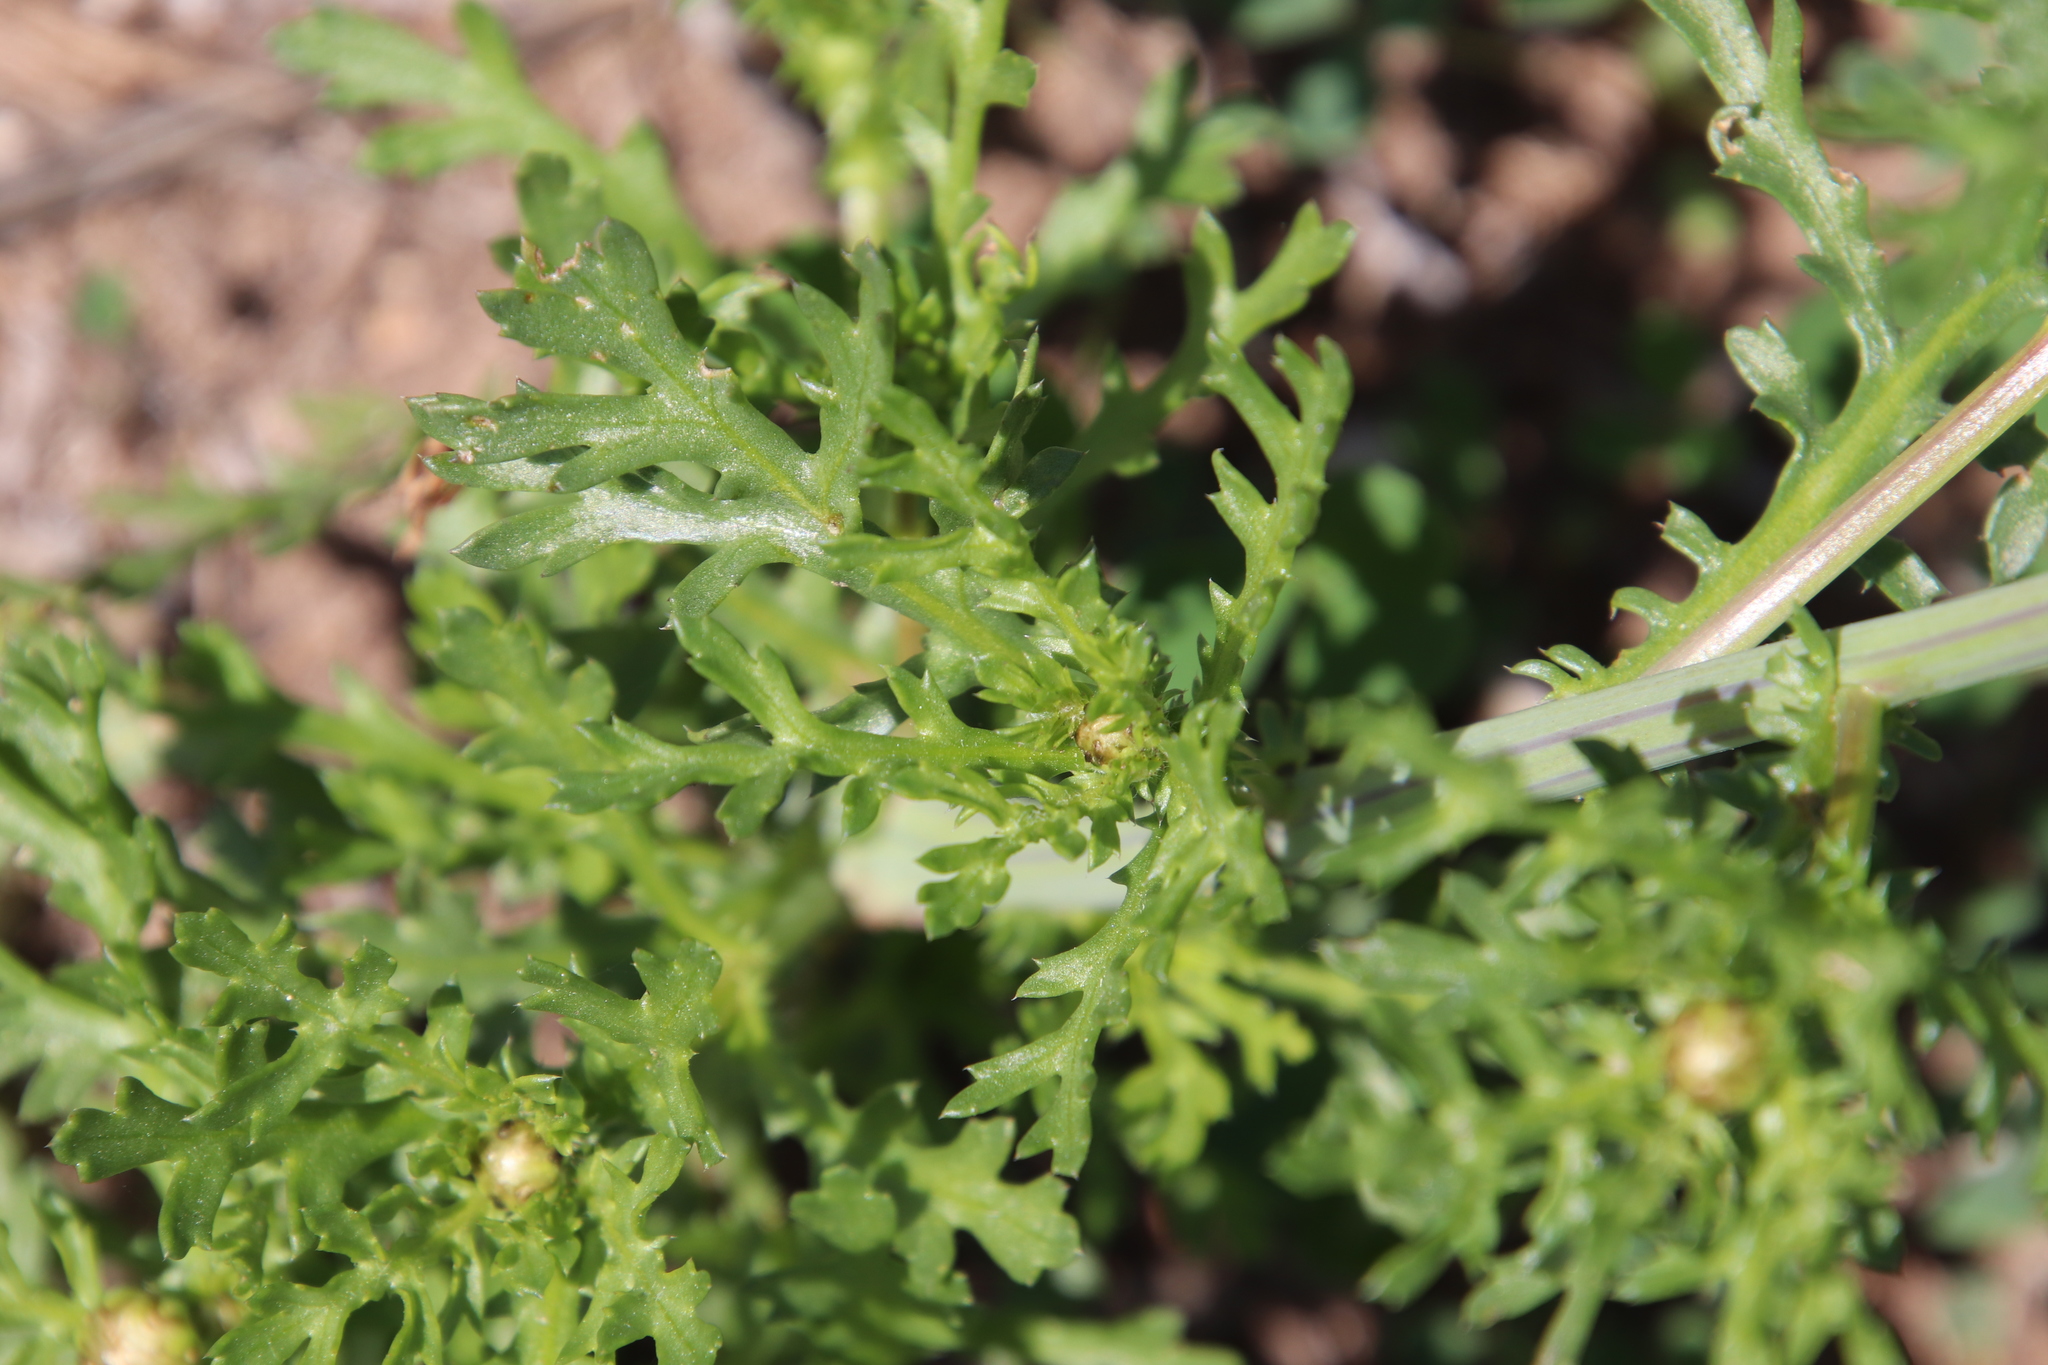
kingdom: Plantae
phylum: Tracheophyta
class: Magnoliopsida
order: Asterales
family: Asteraceae
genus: Glebionis
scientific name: Glebionis coronaria
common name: Crowndaisy
